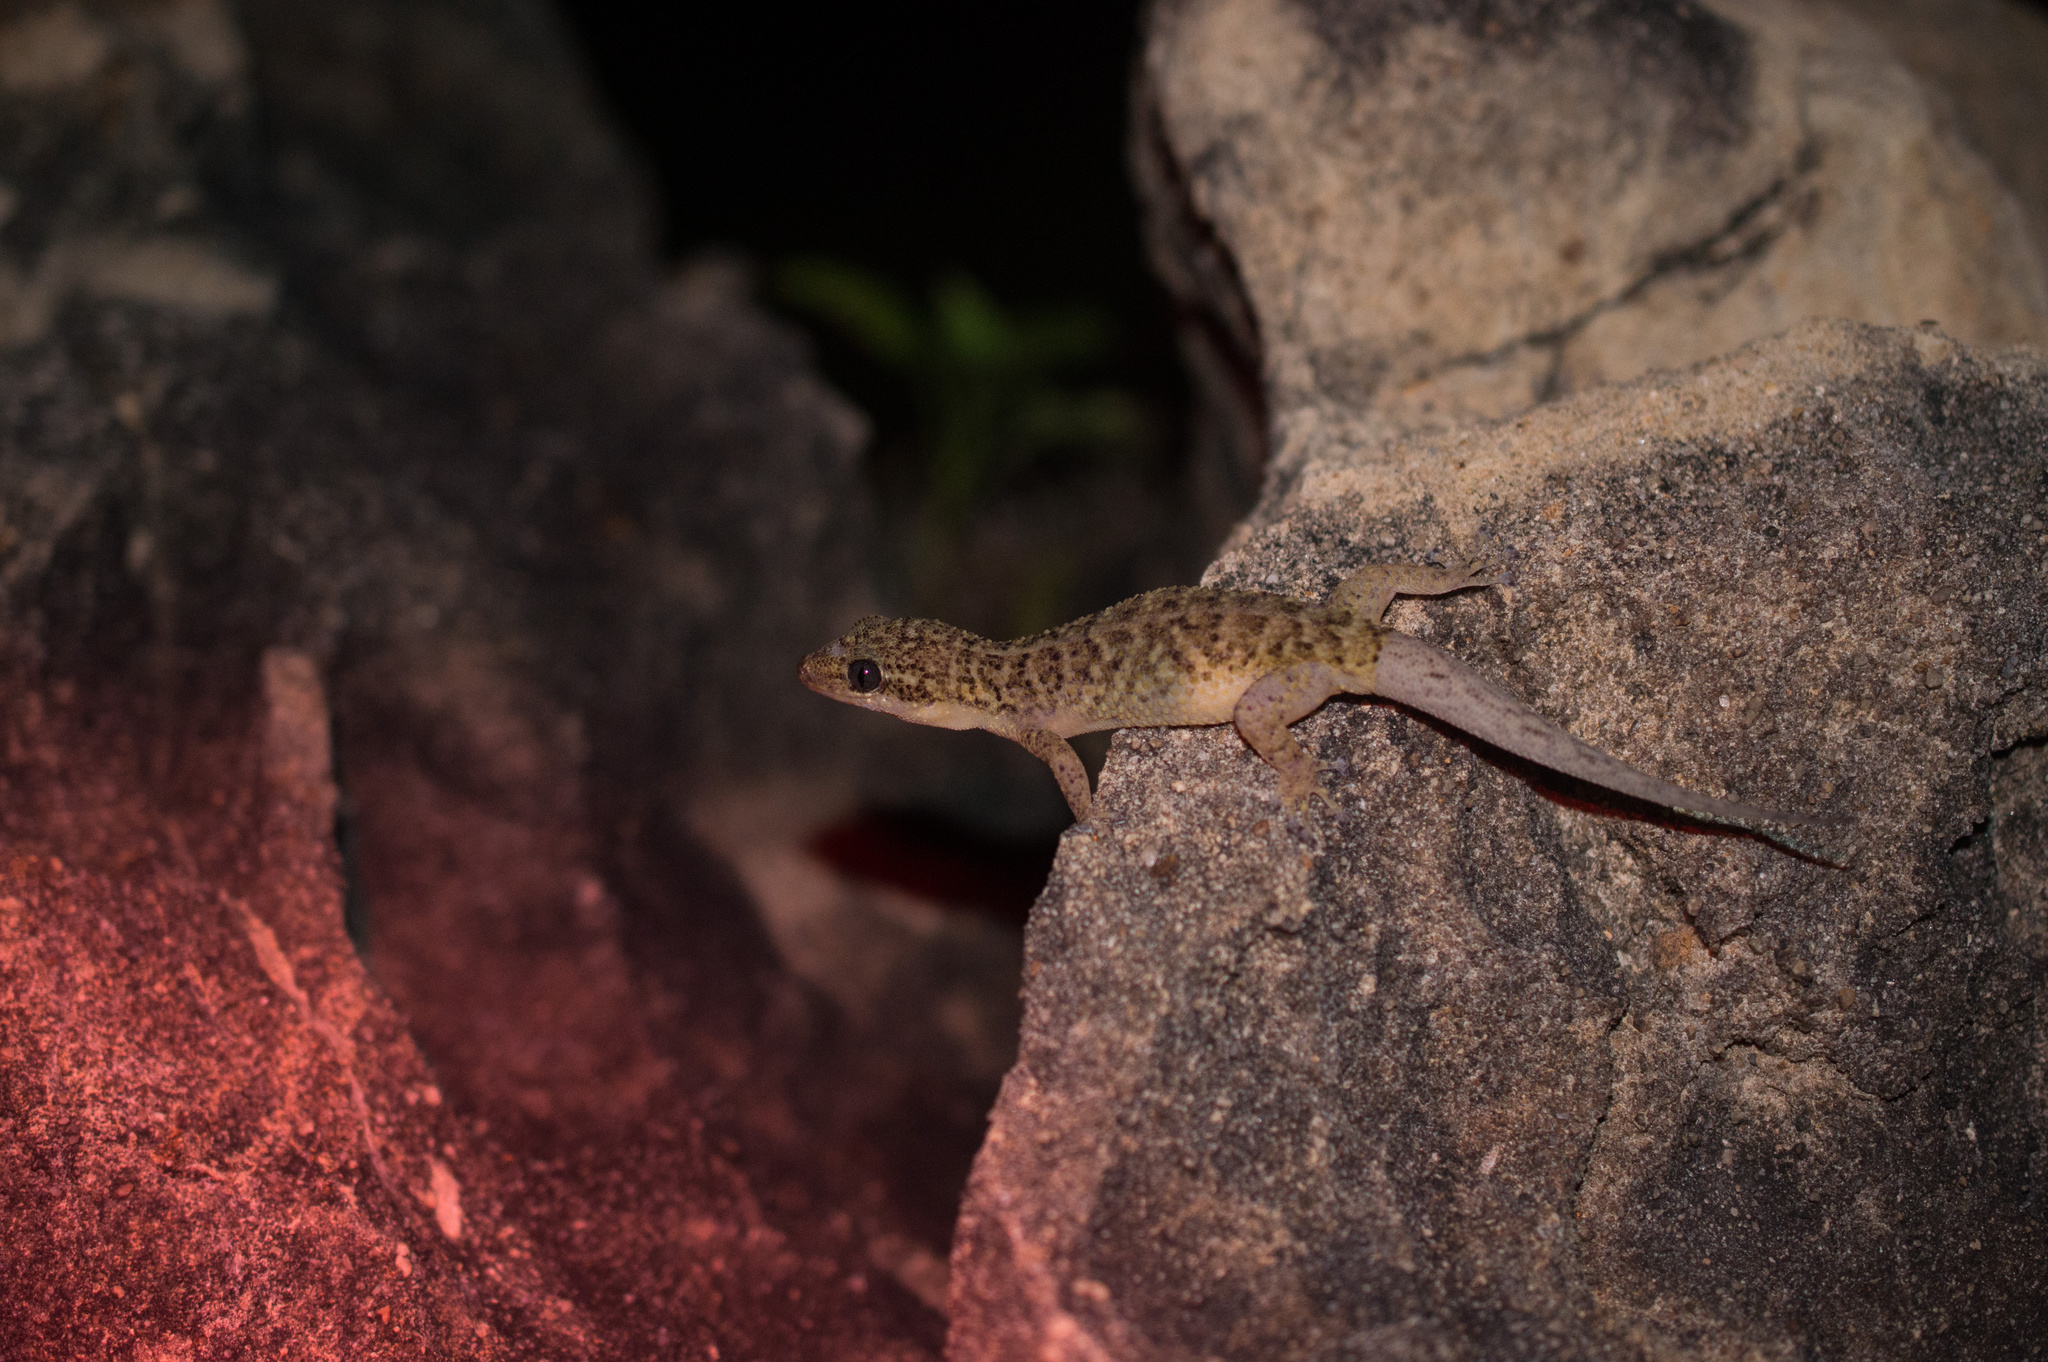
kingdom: Animalia
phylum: Chordata
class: Squamata
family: Phyllodactylidae
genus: Phyllodactylus
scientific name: Phyllodactylus pulcher
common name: Barbados leaf-toed gecko
